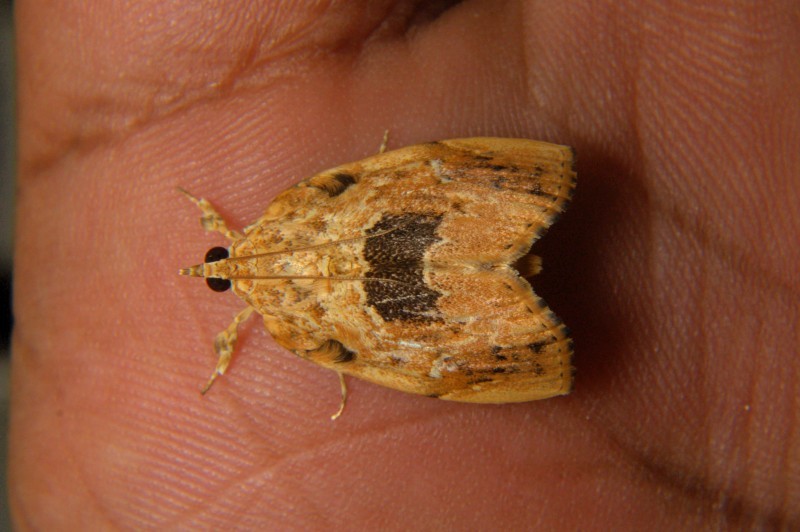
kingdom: Animalia
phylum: Arthropoda
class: Insecta
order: Lepidoptera
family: Crambidae
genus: Crocidolomia
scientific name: Crocidolomia suffusalis
